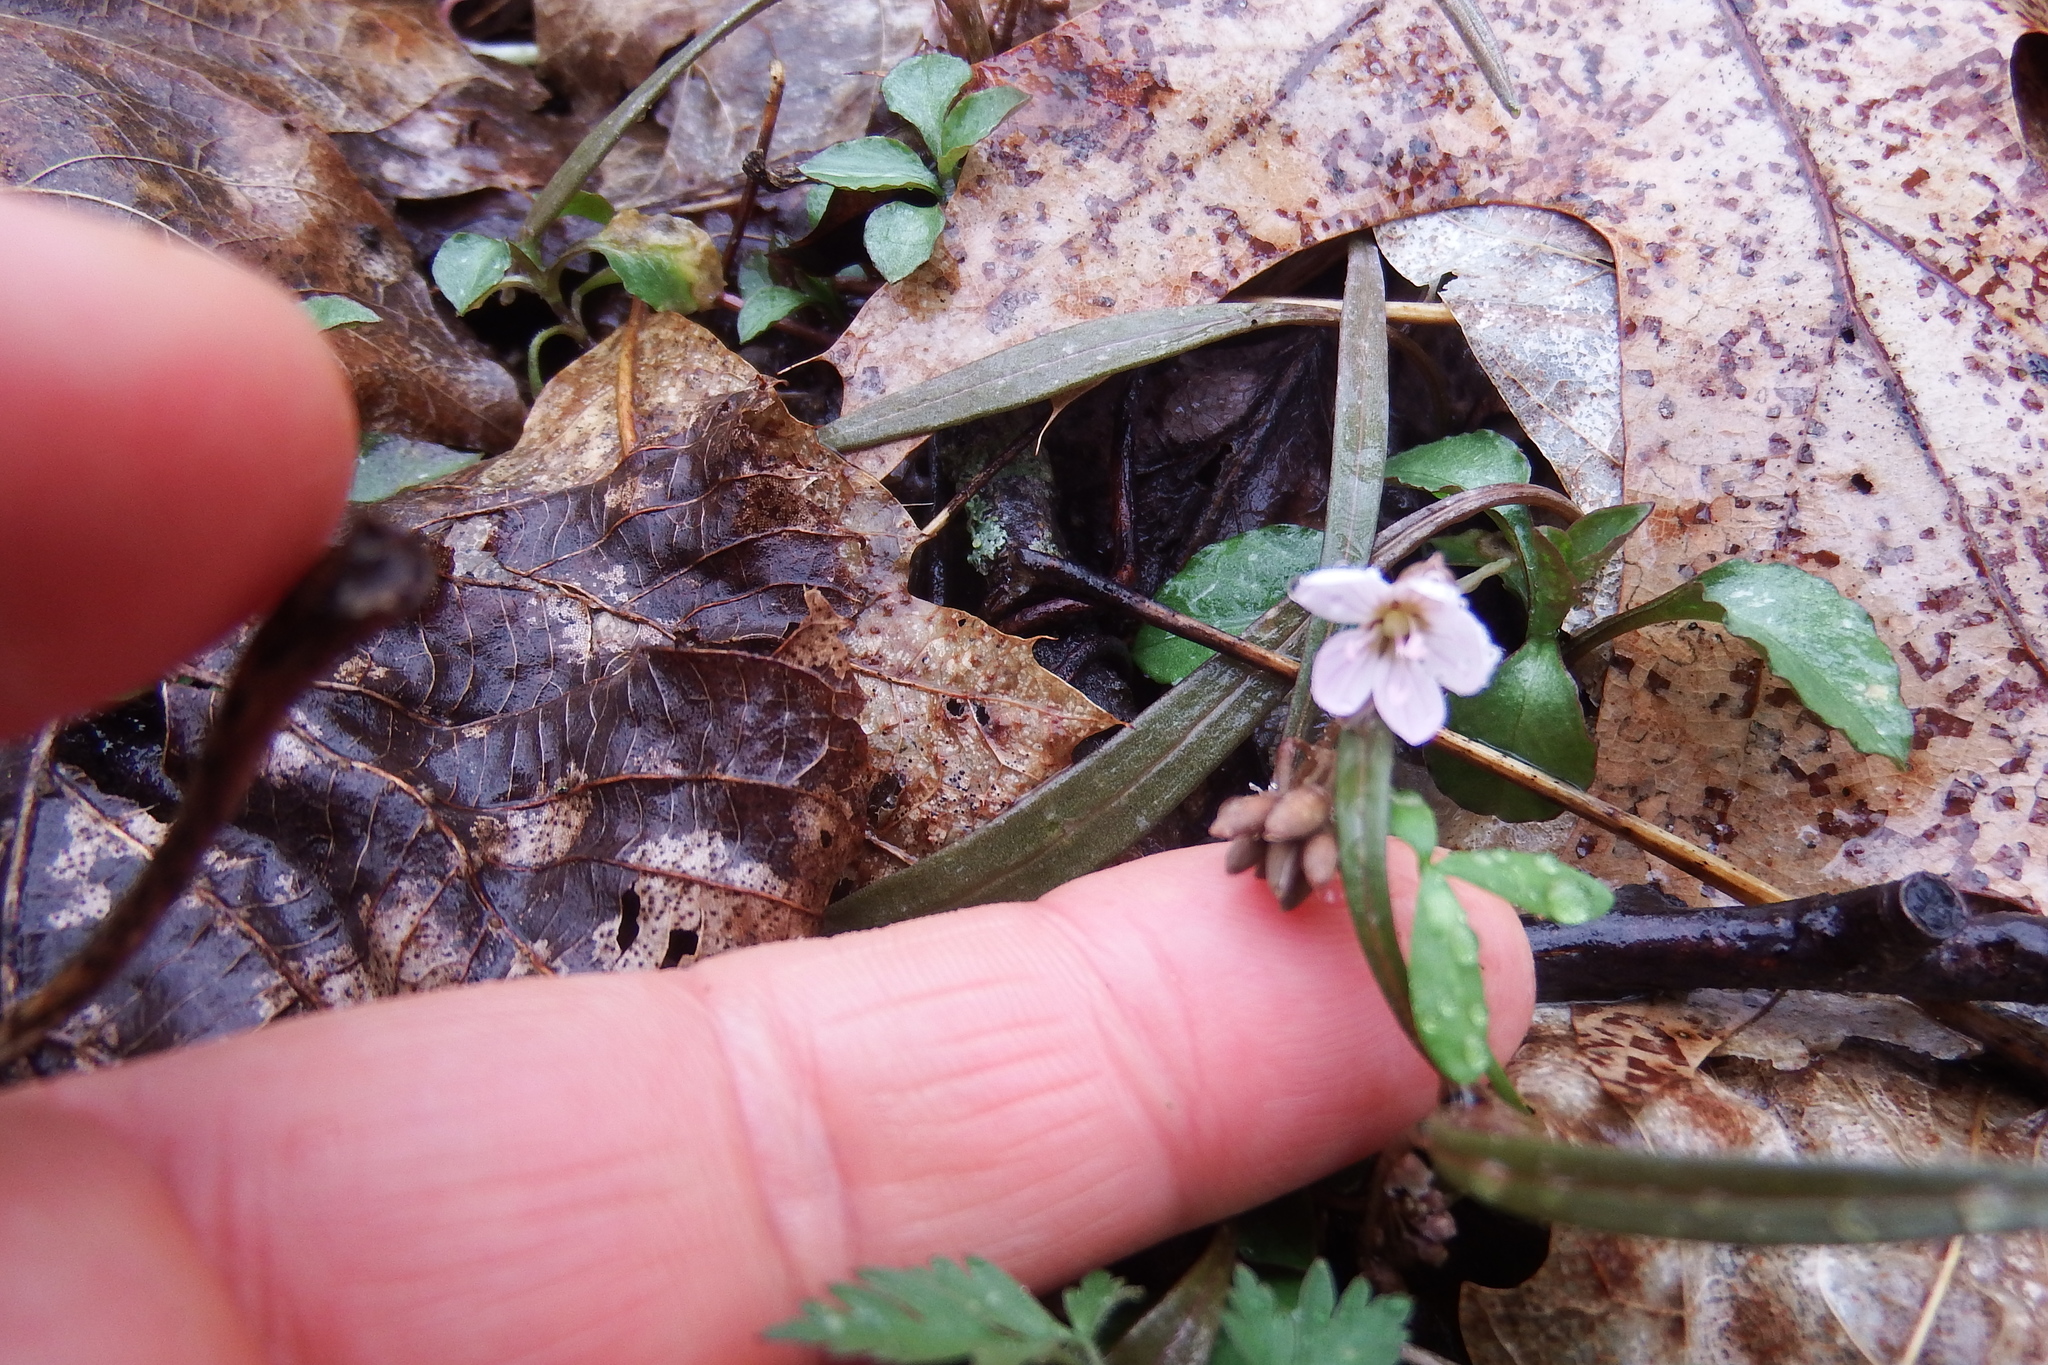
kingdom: Plantae
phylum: Tracheophyta
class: Magnoliopsida
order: Caryophyllales
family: Montiaceae
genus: Claytonia
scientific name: Claytonia virginica
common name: Virginia springbeauty
